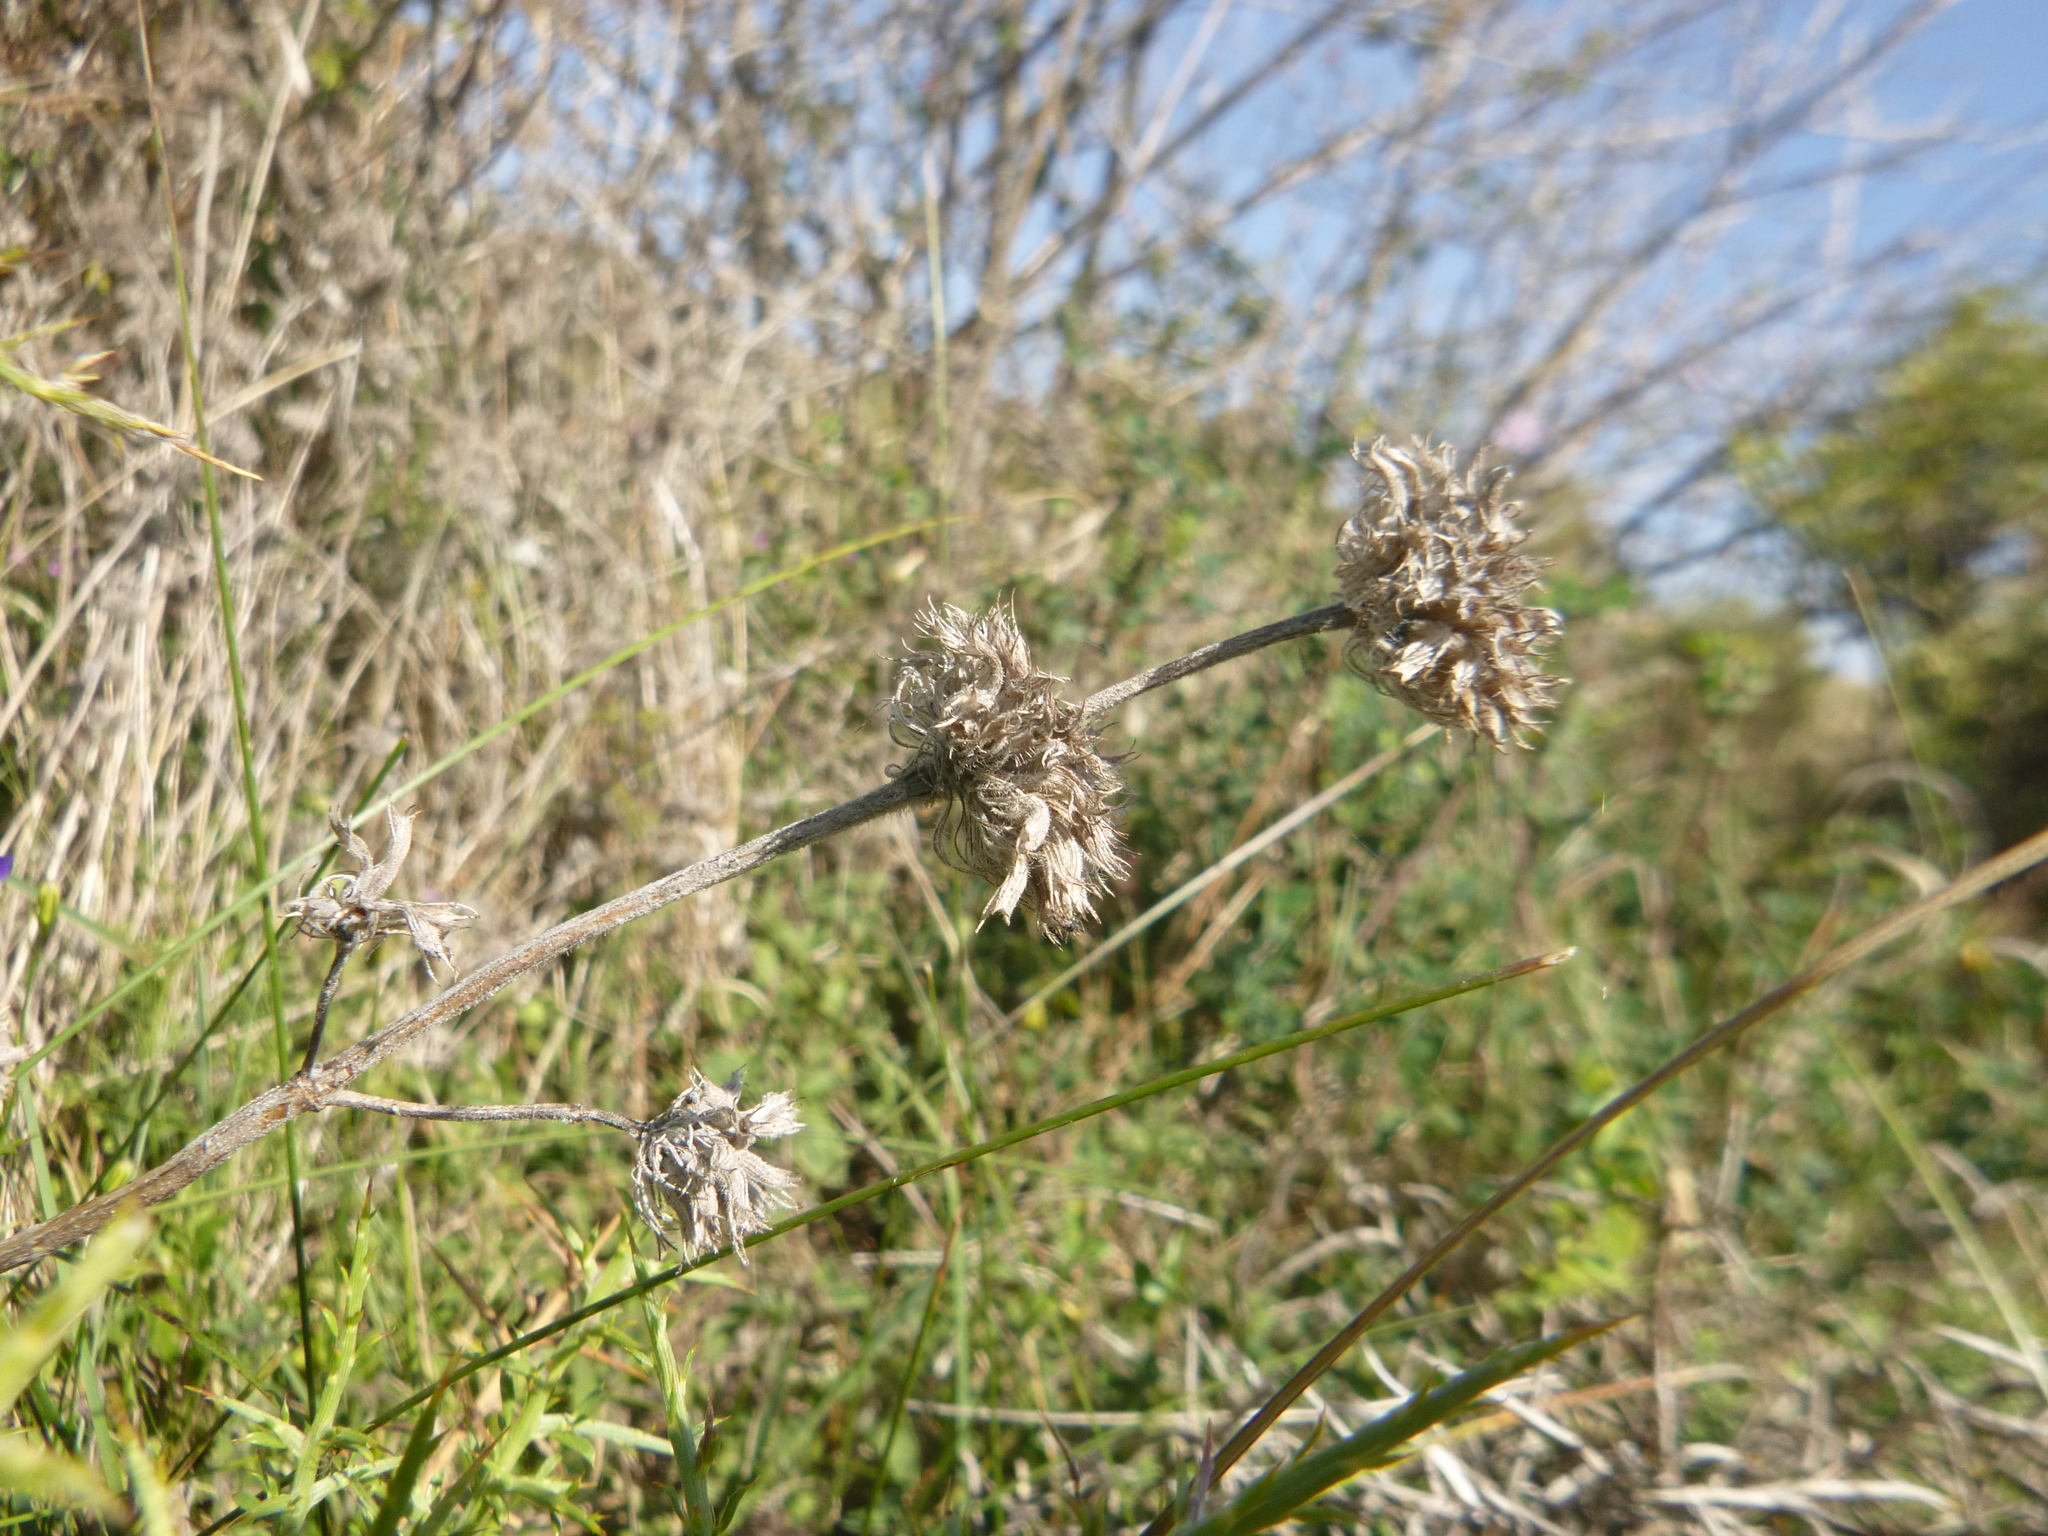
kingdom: Plantae
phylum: Tracheophyta
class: Magnoliopsida
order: Lamiales
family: Lamiaceae
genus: Clinopodium
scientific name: Clinopodium vulgare
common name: Wild basil
